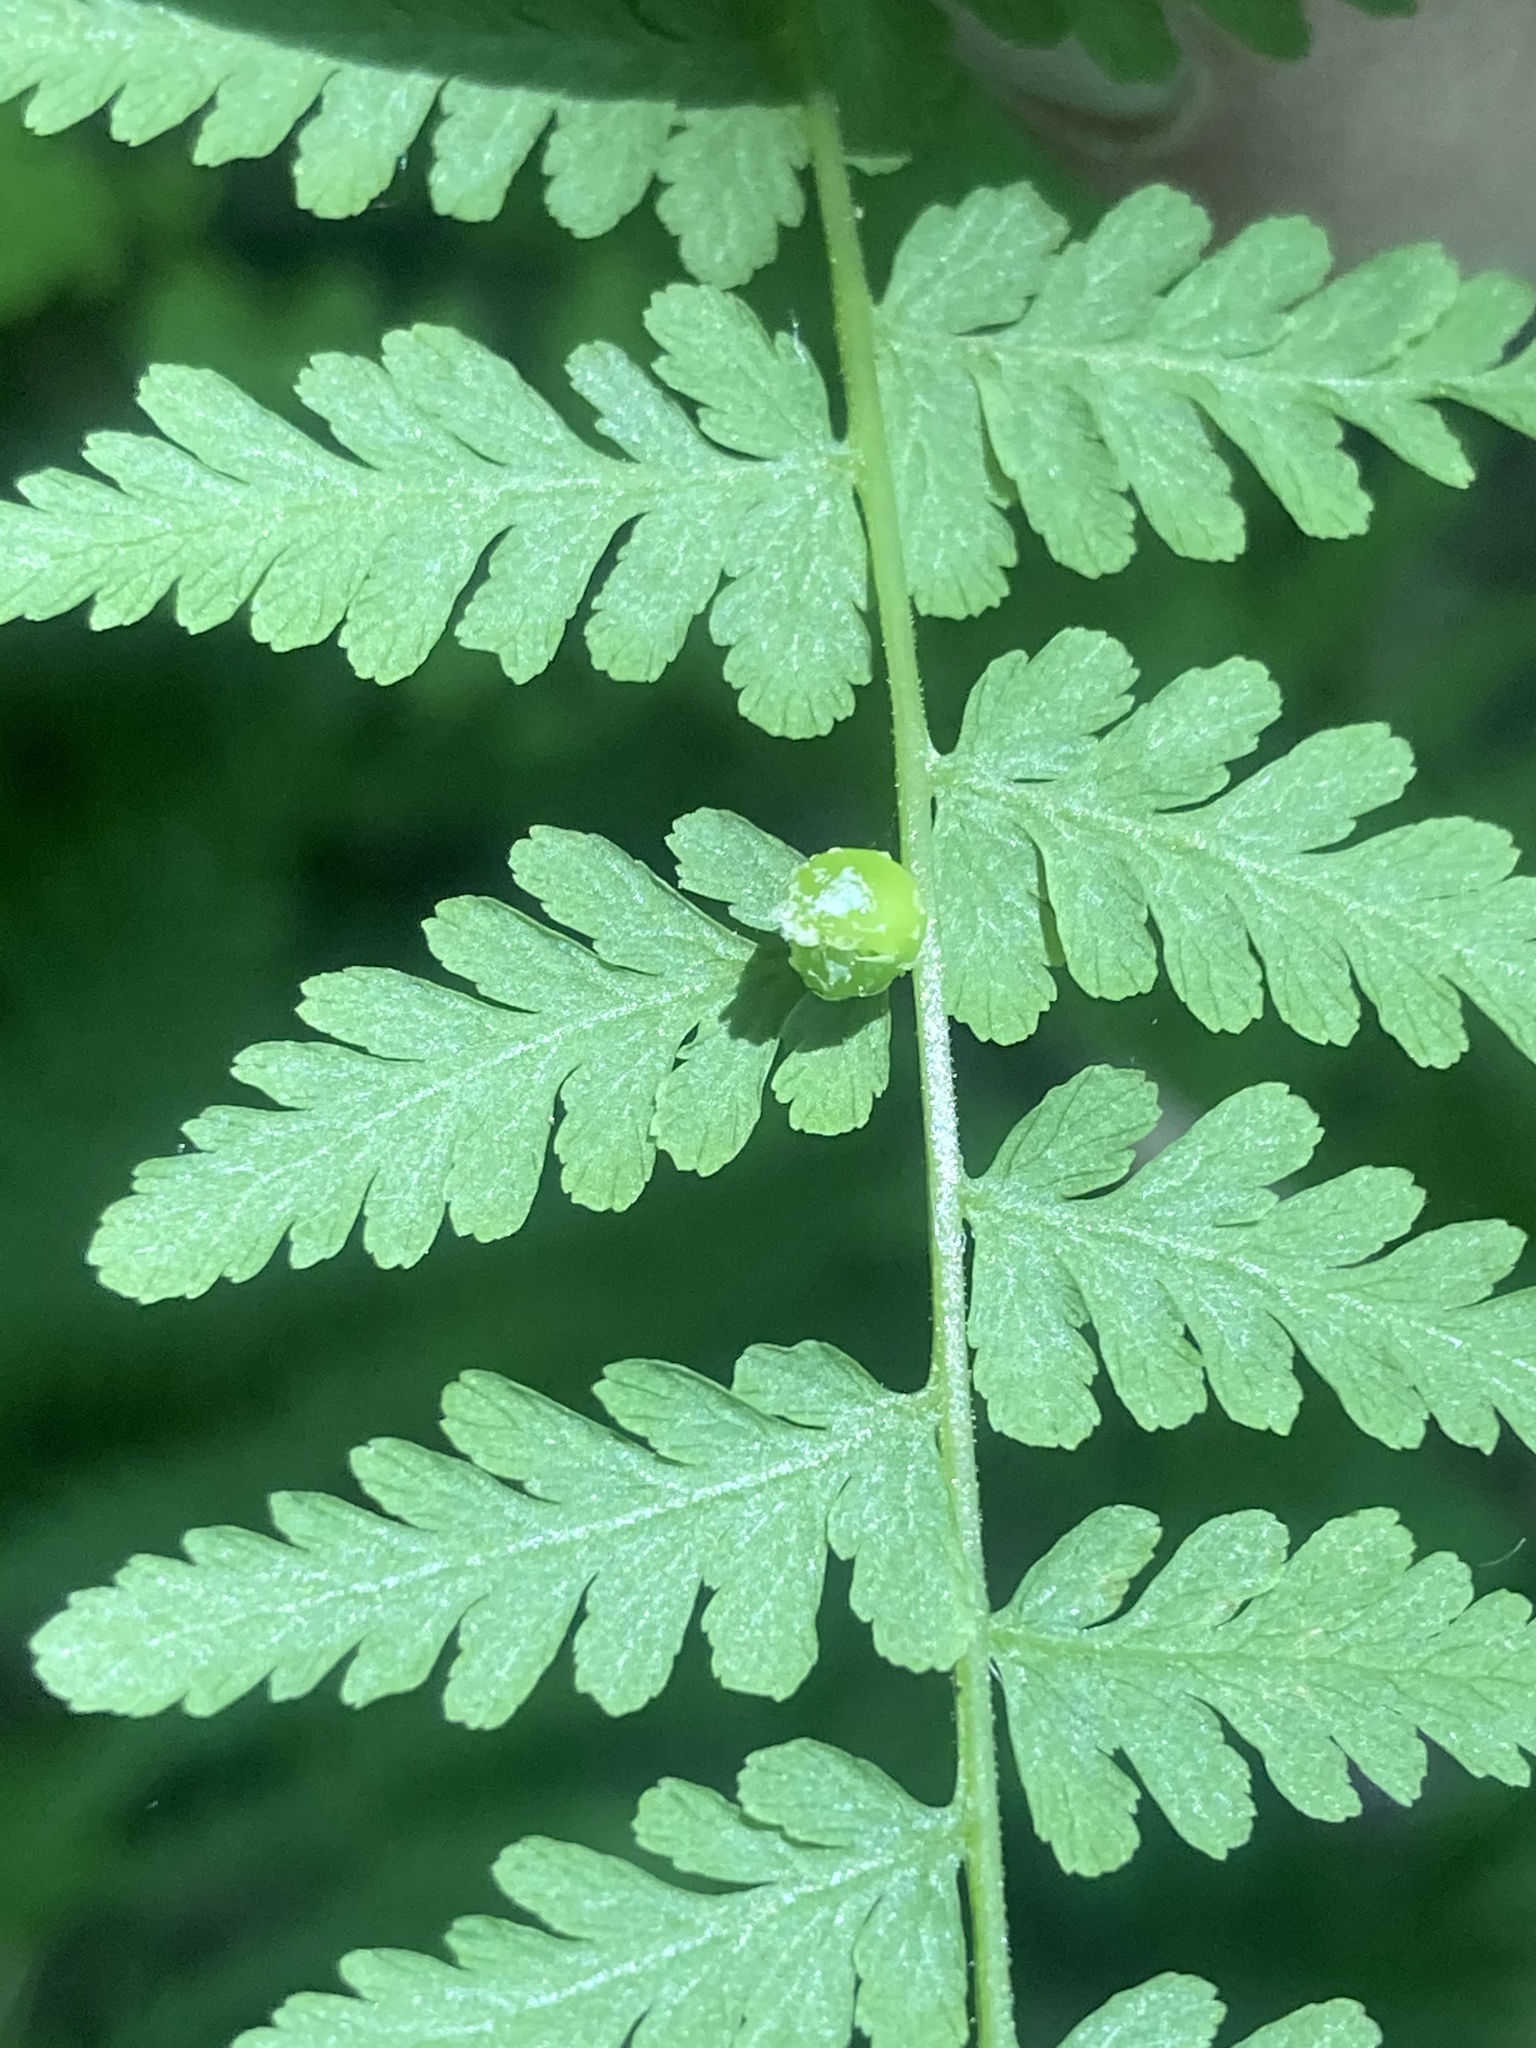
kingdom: Plantae
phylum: Tracheophyta
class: Polypodiopsida
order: Polypodiales
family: Cystopteridaceae
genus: Cystopteris
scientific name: Cystopteris bulbifera
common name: Bulblet bladder fern
